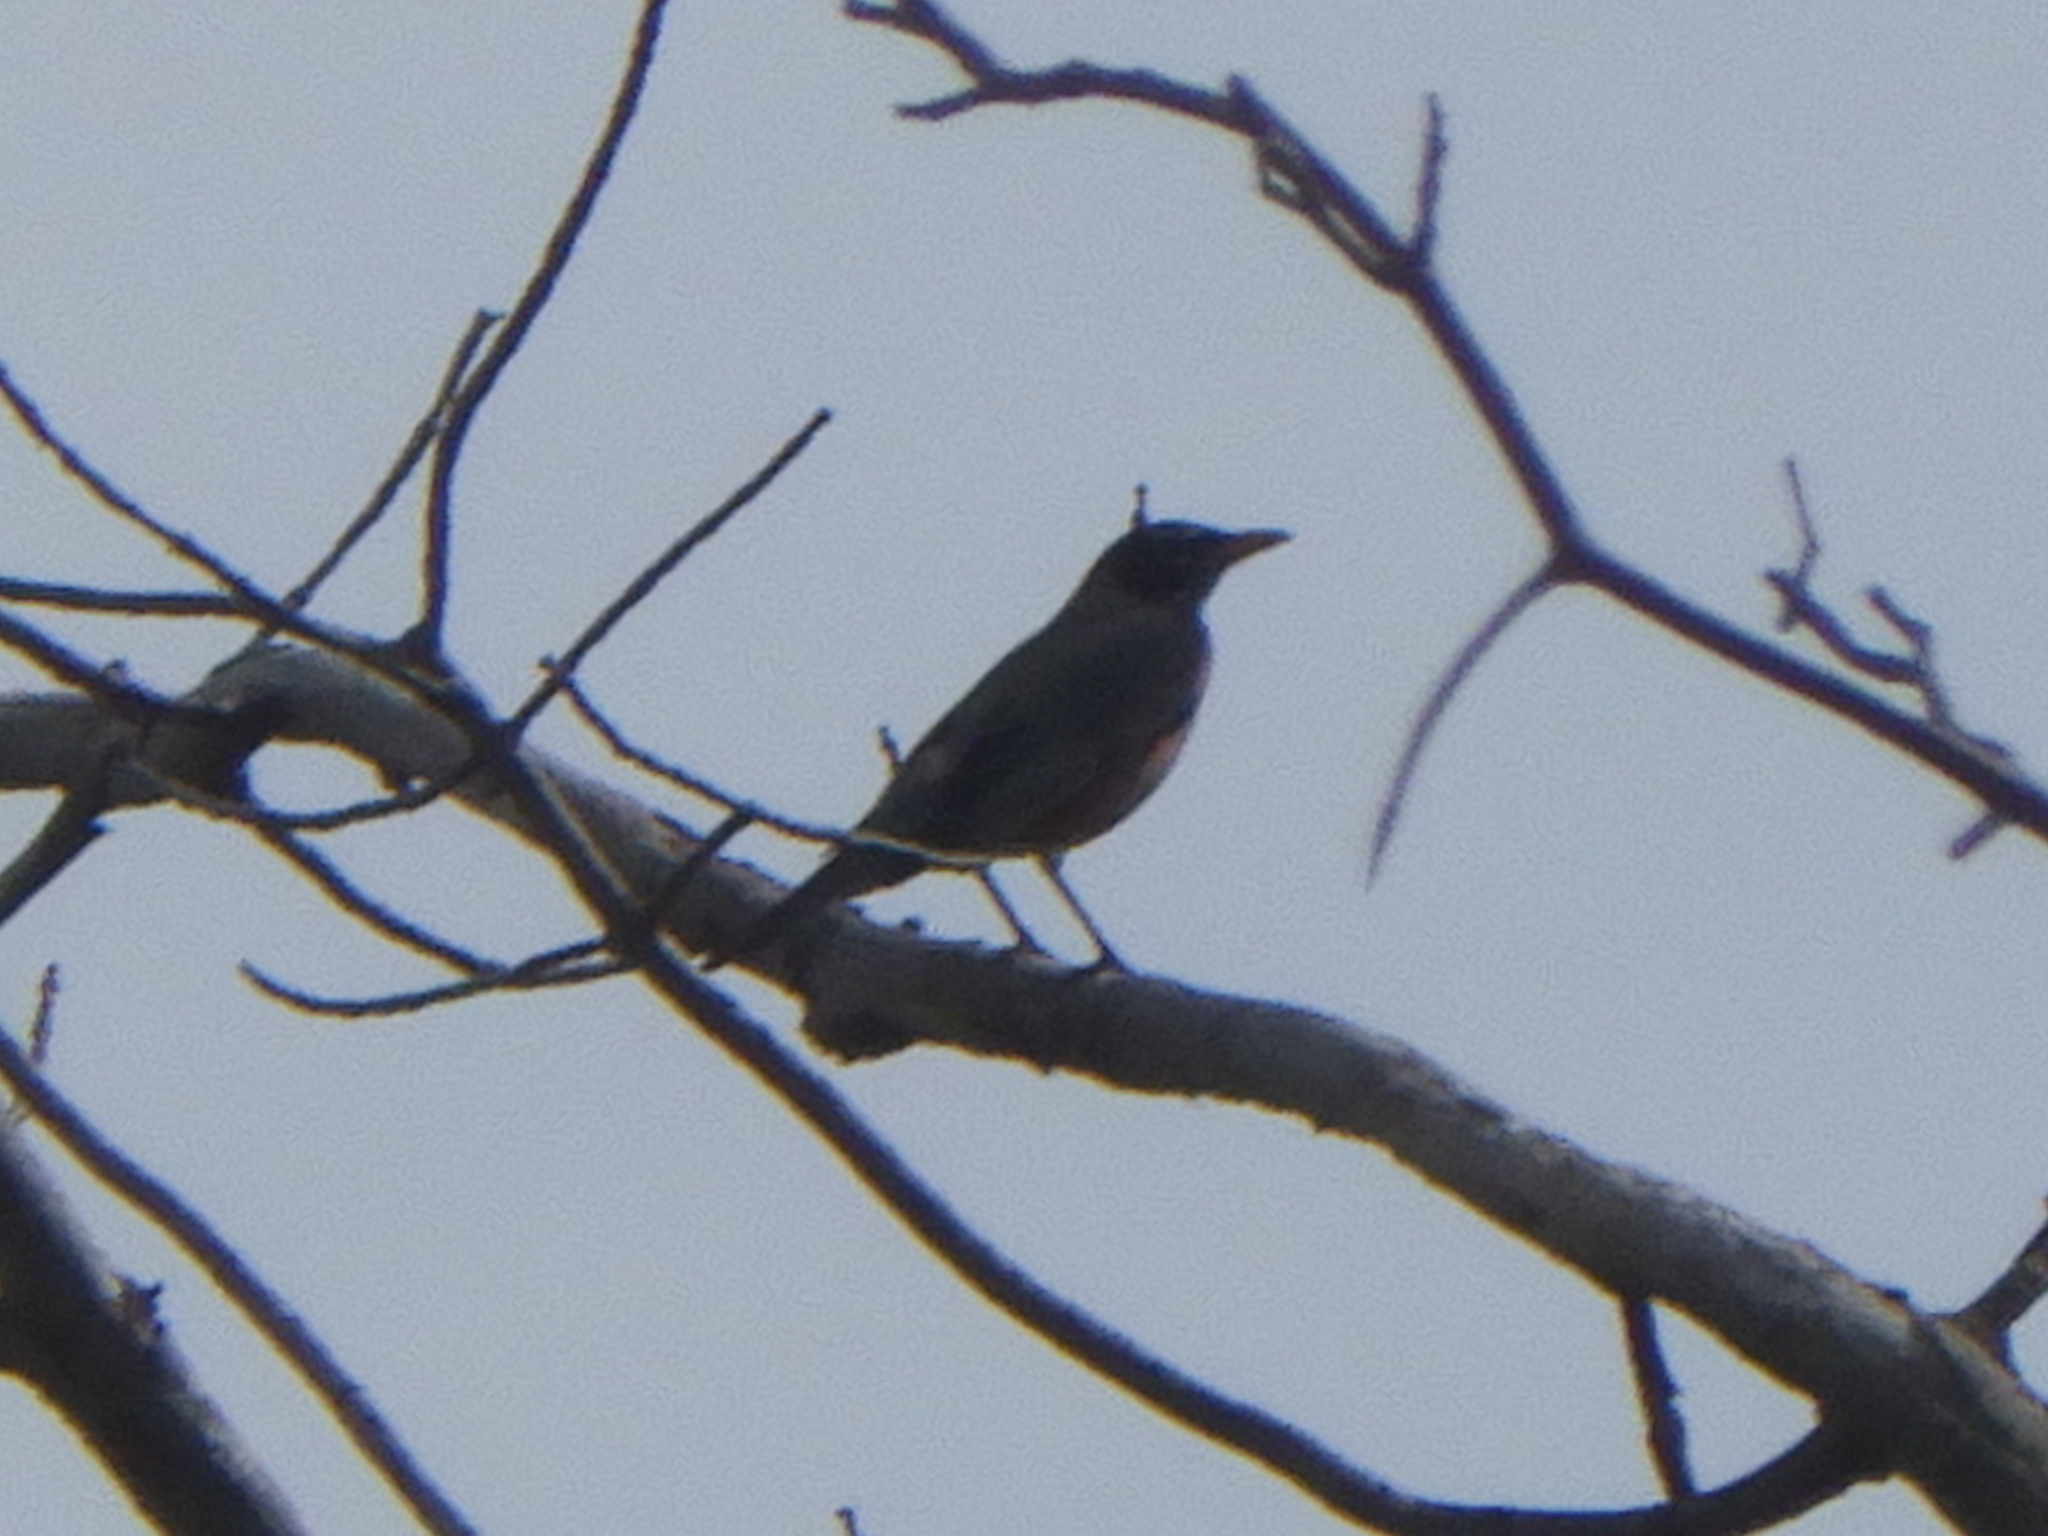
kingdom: Animalia
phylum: Chordata
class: Aves
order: Passeriformes
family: Turdidae
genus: Turdus
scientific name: Turdus migratorius
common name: American robin
